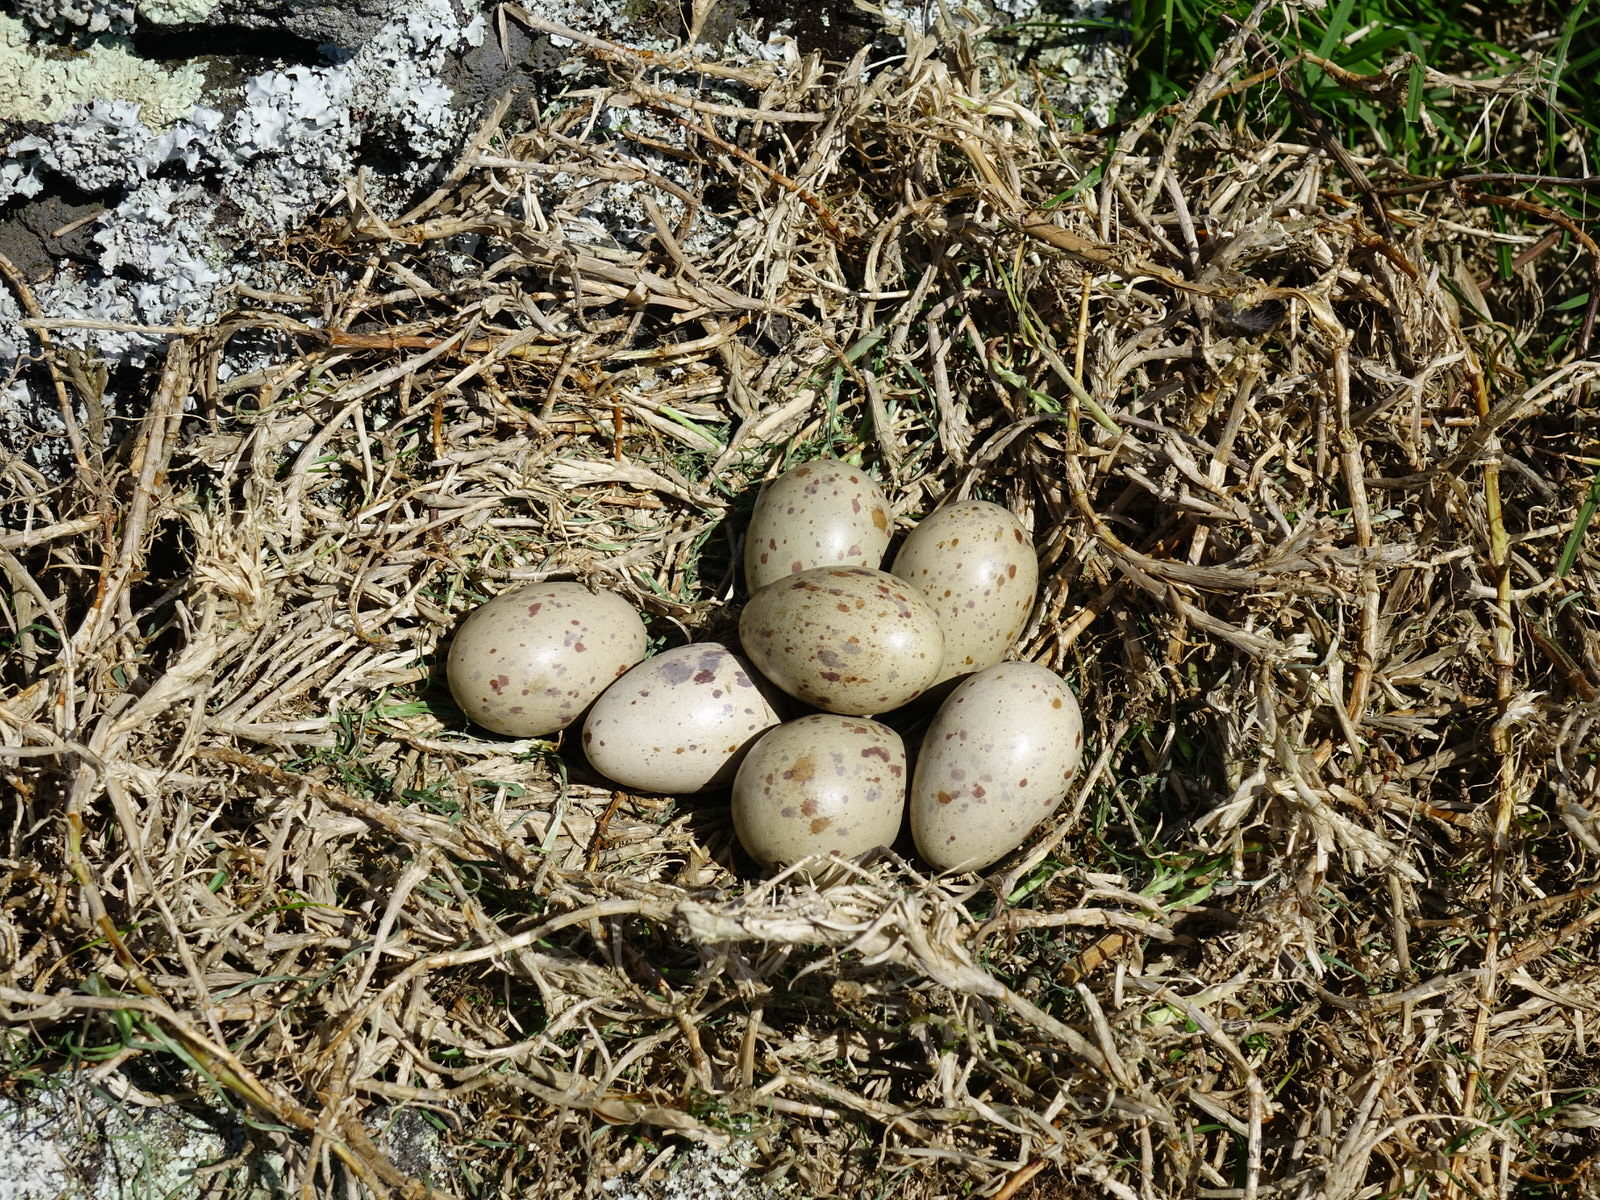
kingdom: Animalia
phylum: Chordata
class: Aves
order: Gruiformes
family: Rallidae
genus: Porphyrio
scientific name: Porphyrio melanotus
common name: Australasian swamphen
